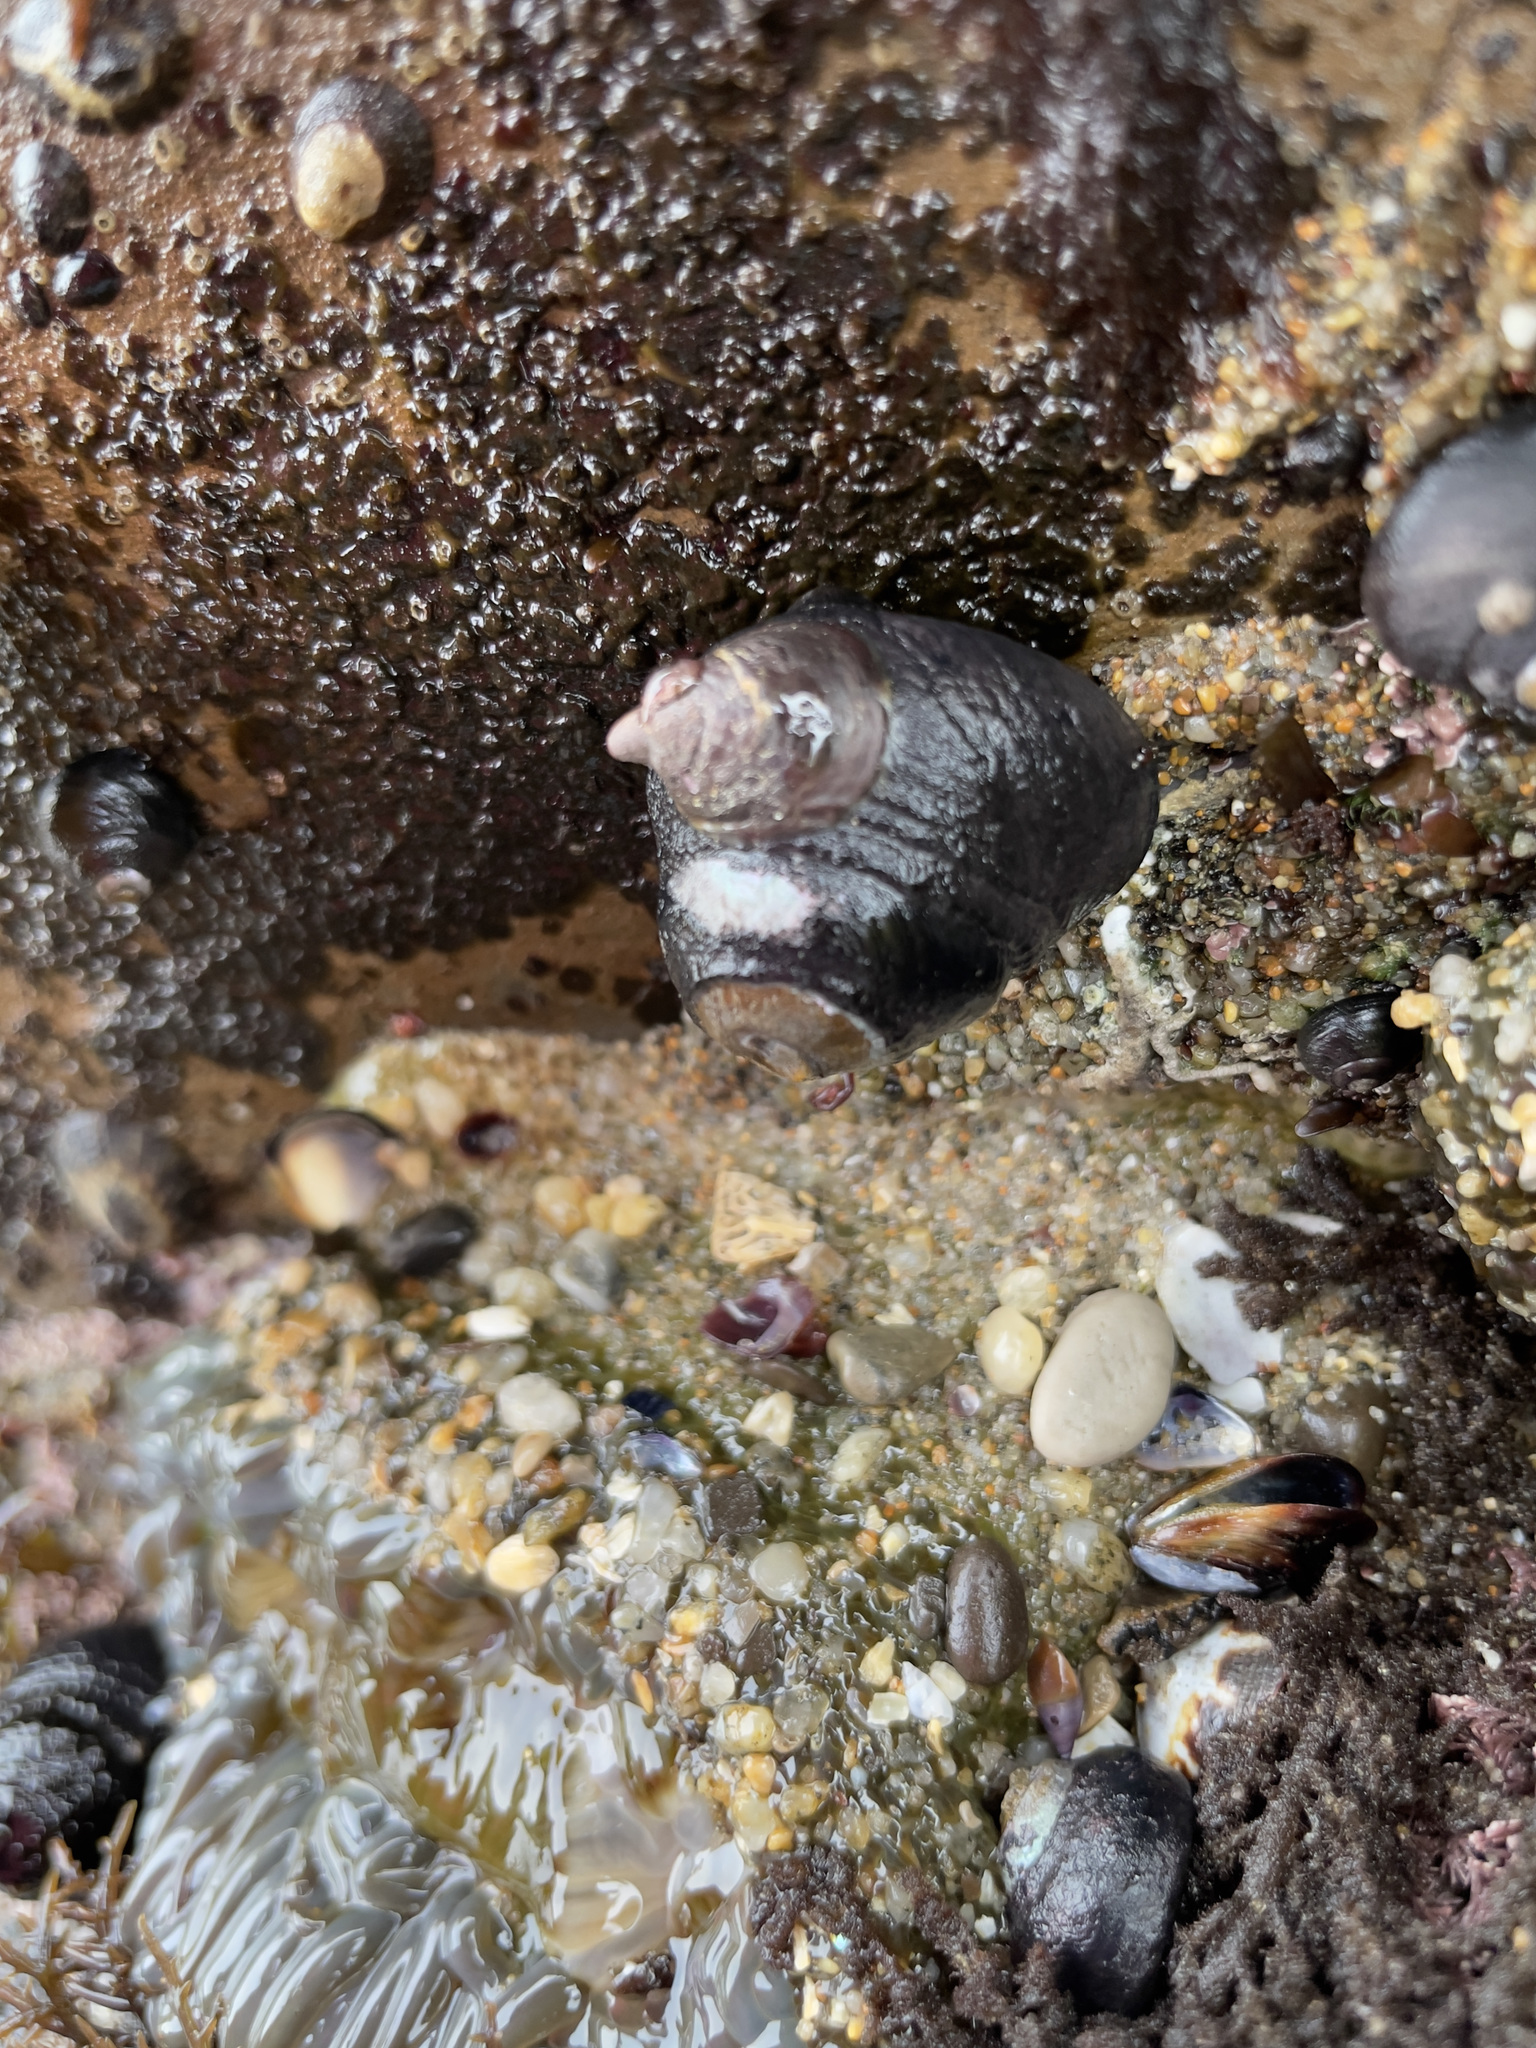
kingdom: Animalia
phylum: Mollusca
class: Gastropoda
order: Trochida
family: Tegulidae
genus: Tegula
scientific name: Tegula funebralis
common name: Black tegula
